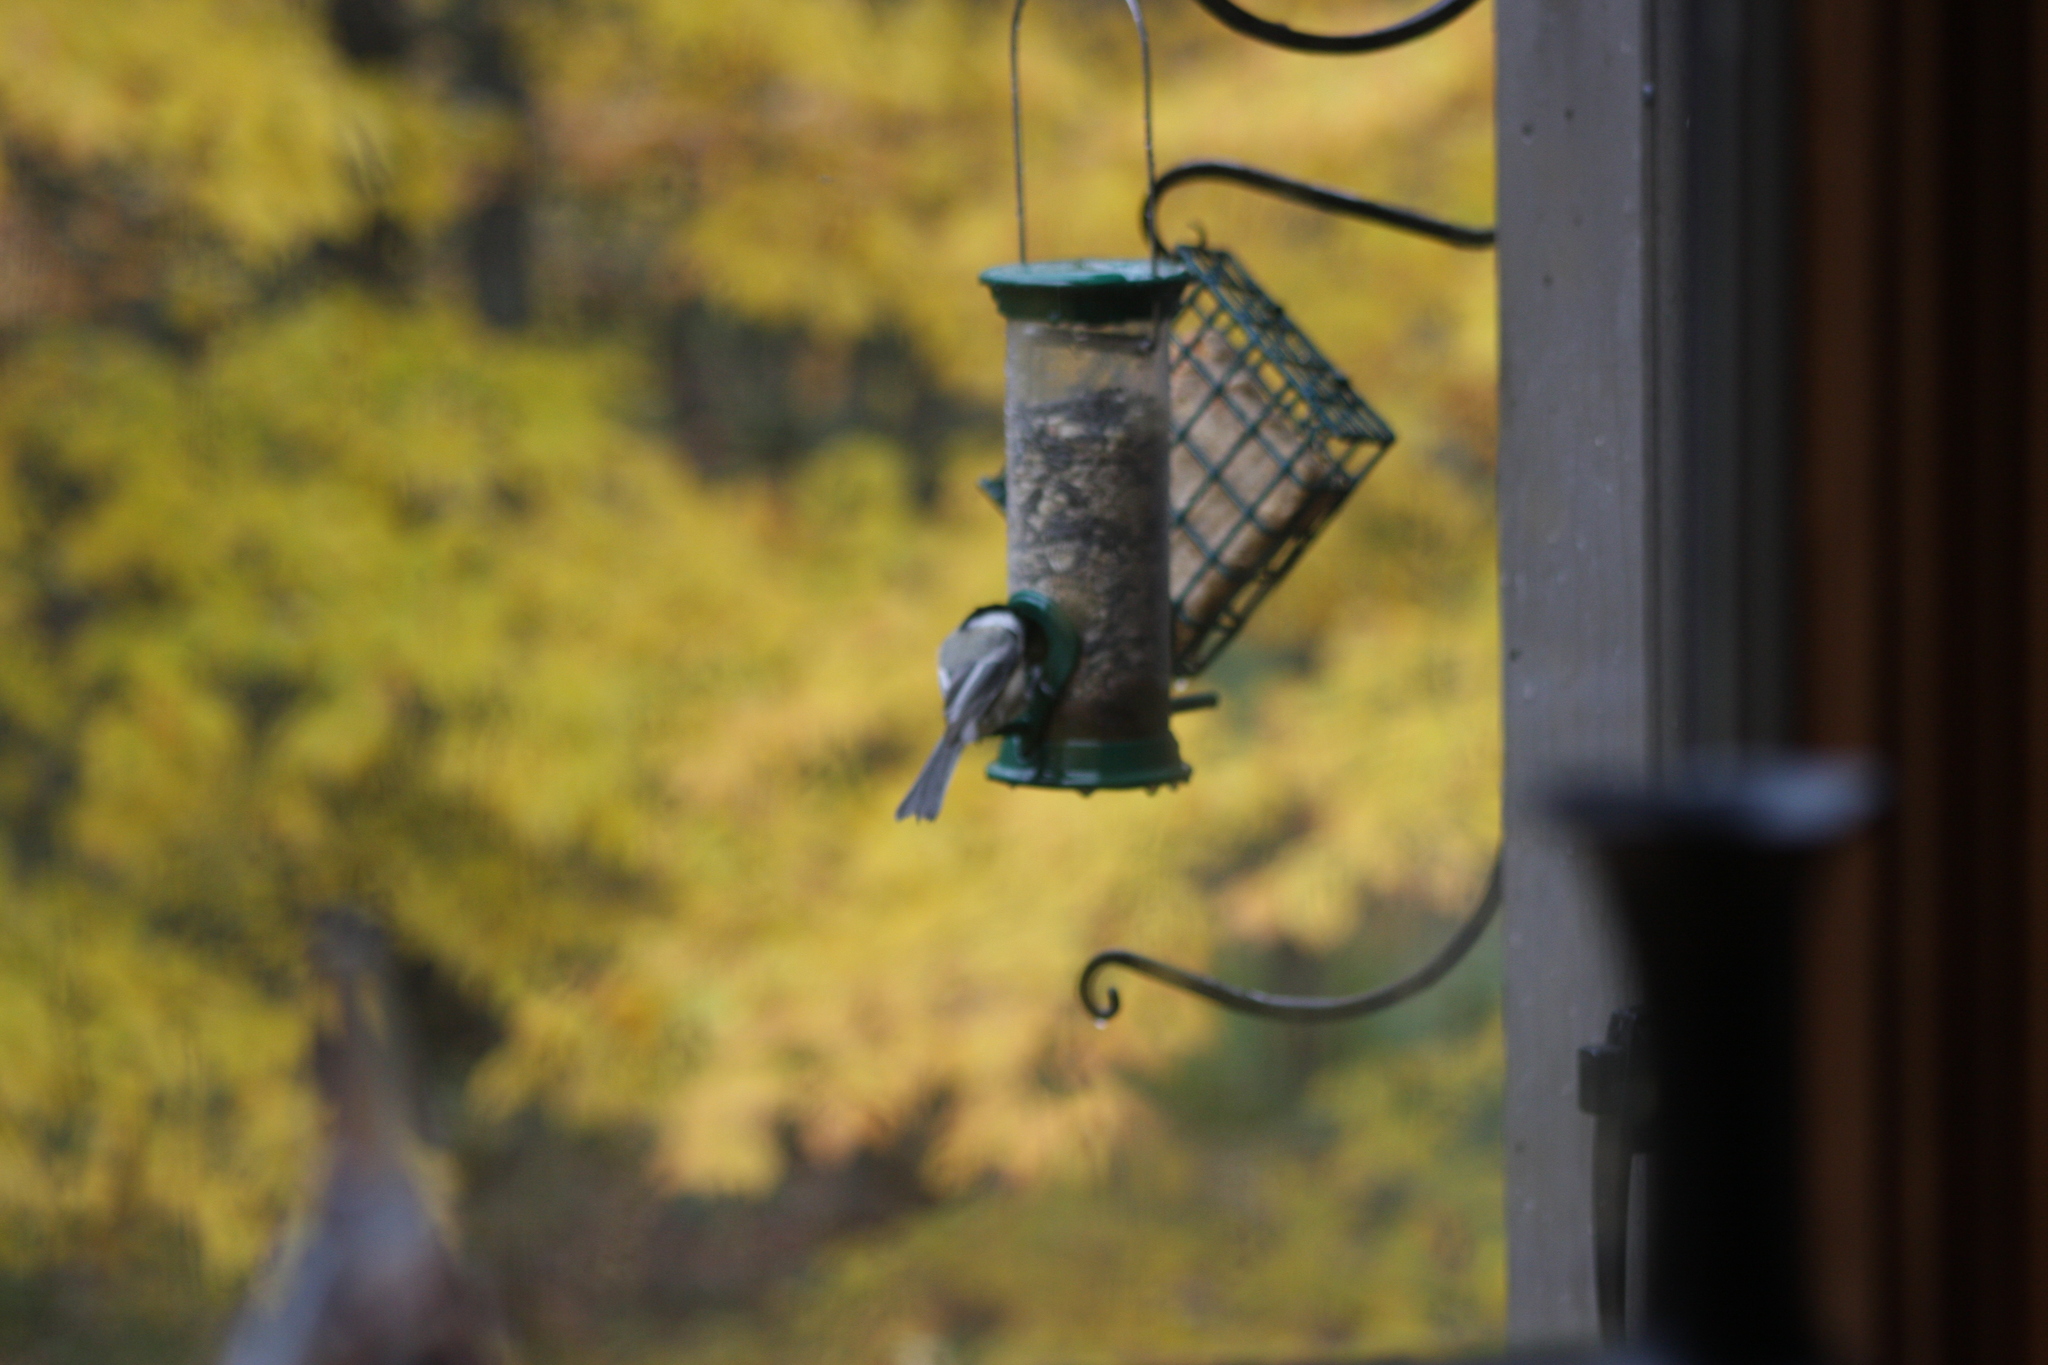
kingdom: Animalia
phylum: Chordata
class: Aves
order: Passeriformes
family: Paridae
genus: Poecile
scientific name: Poecile atricapillus
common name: Black-capped chickadee
